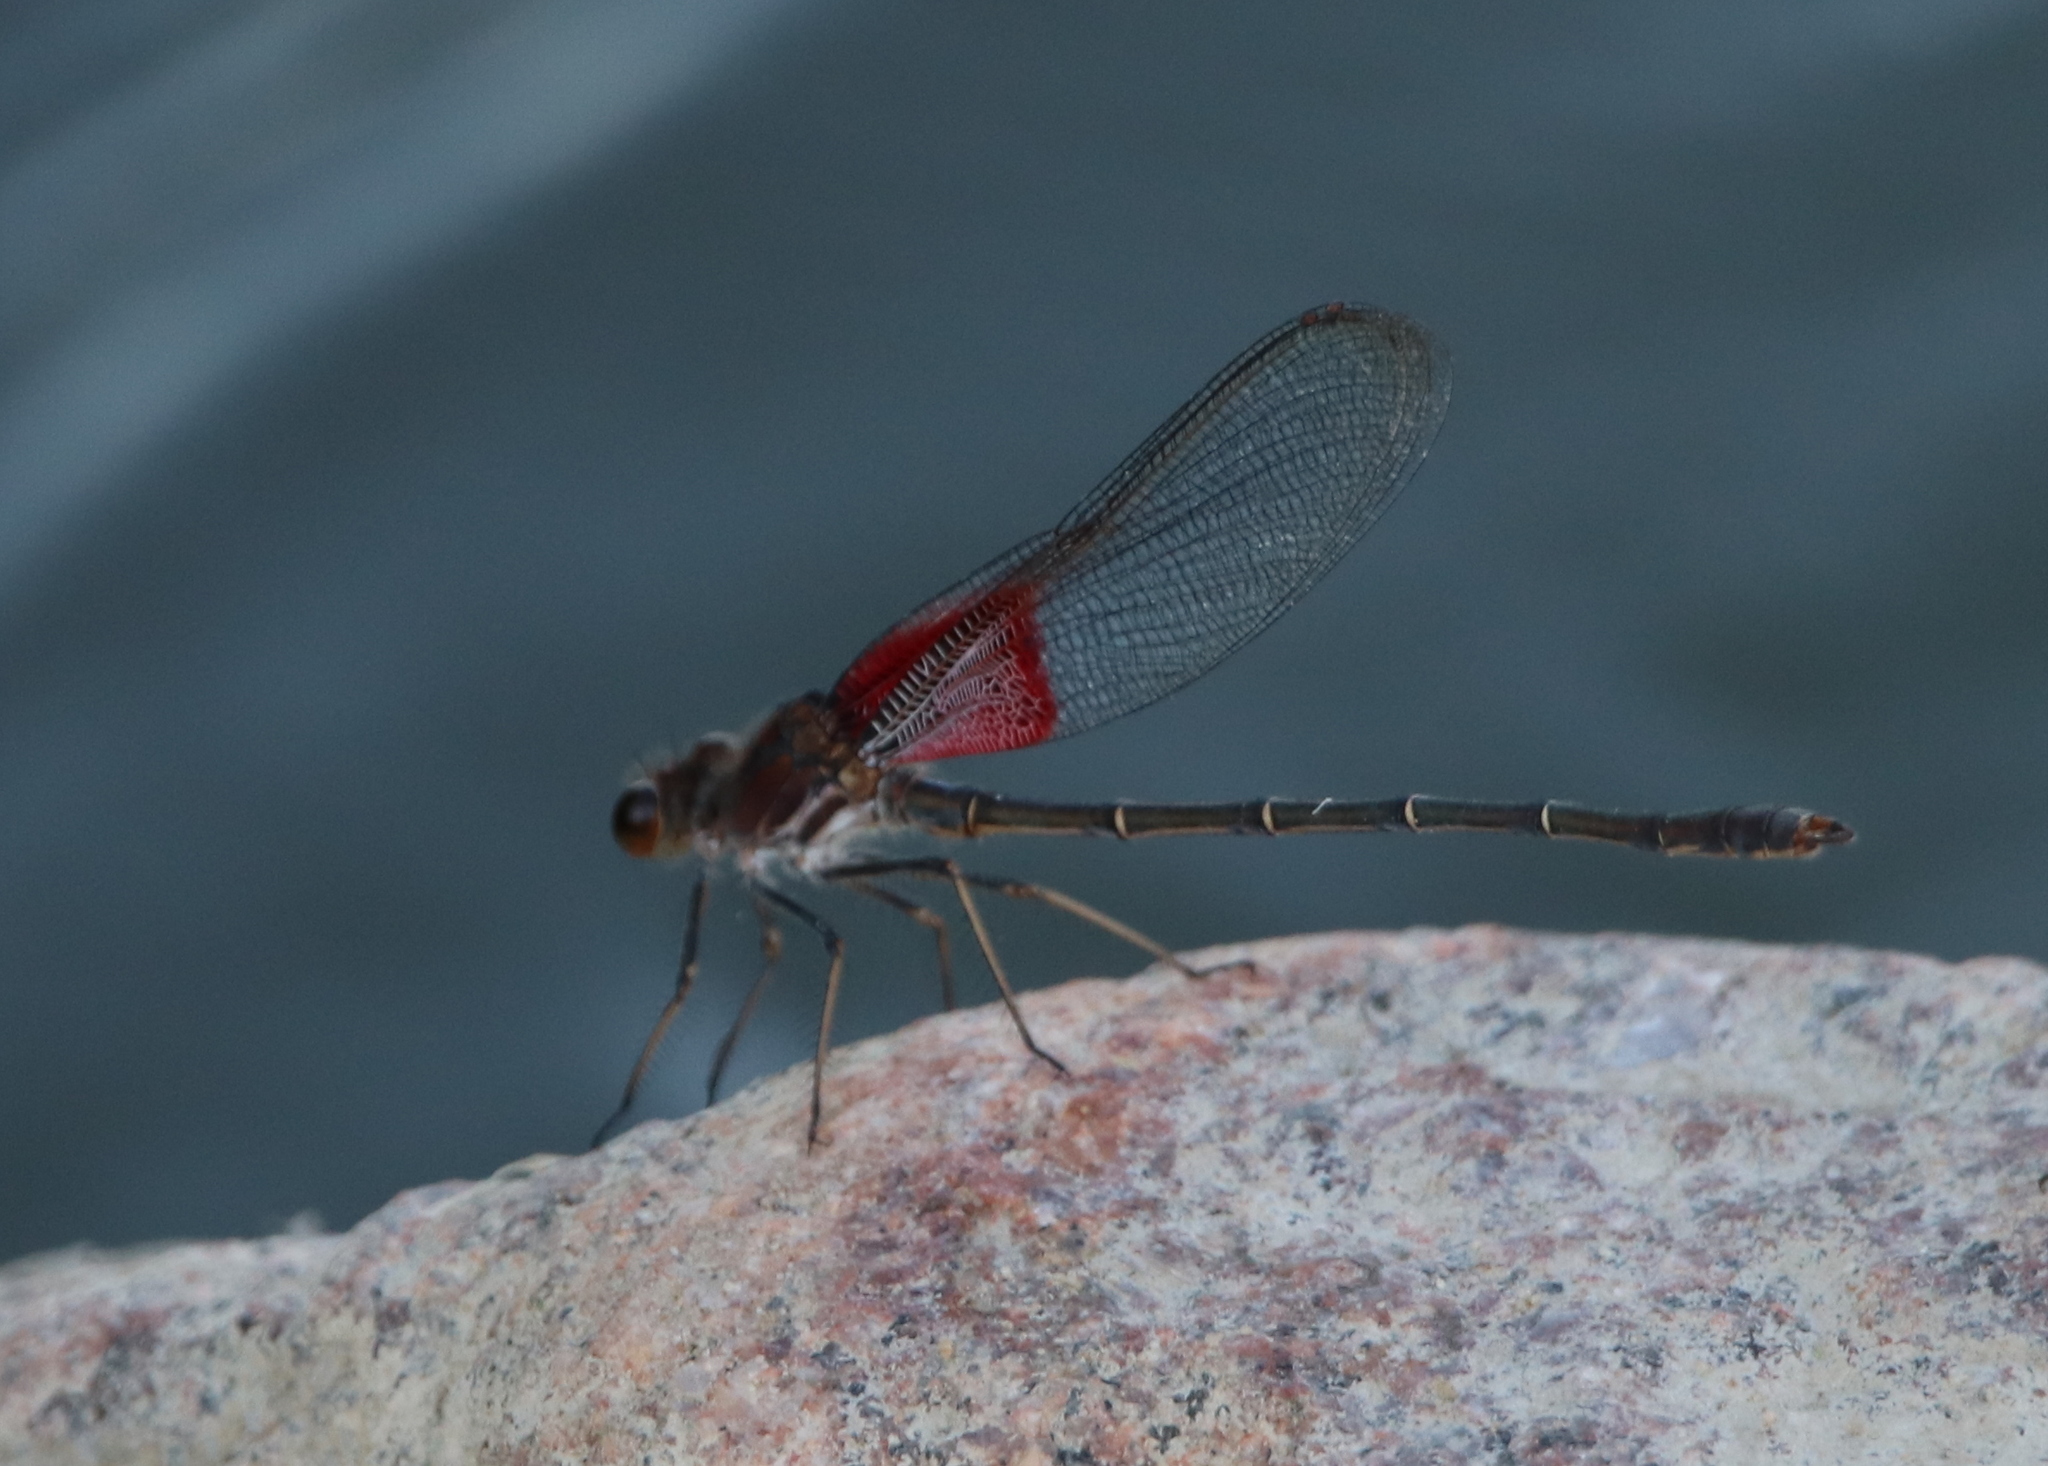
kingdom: Animalia
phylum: Arthropoda
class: Insecta
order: Odonata
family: Calopterygidae
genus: Hetaerina
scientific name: Hetaerina americana
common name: American rubyspot
